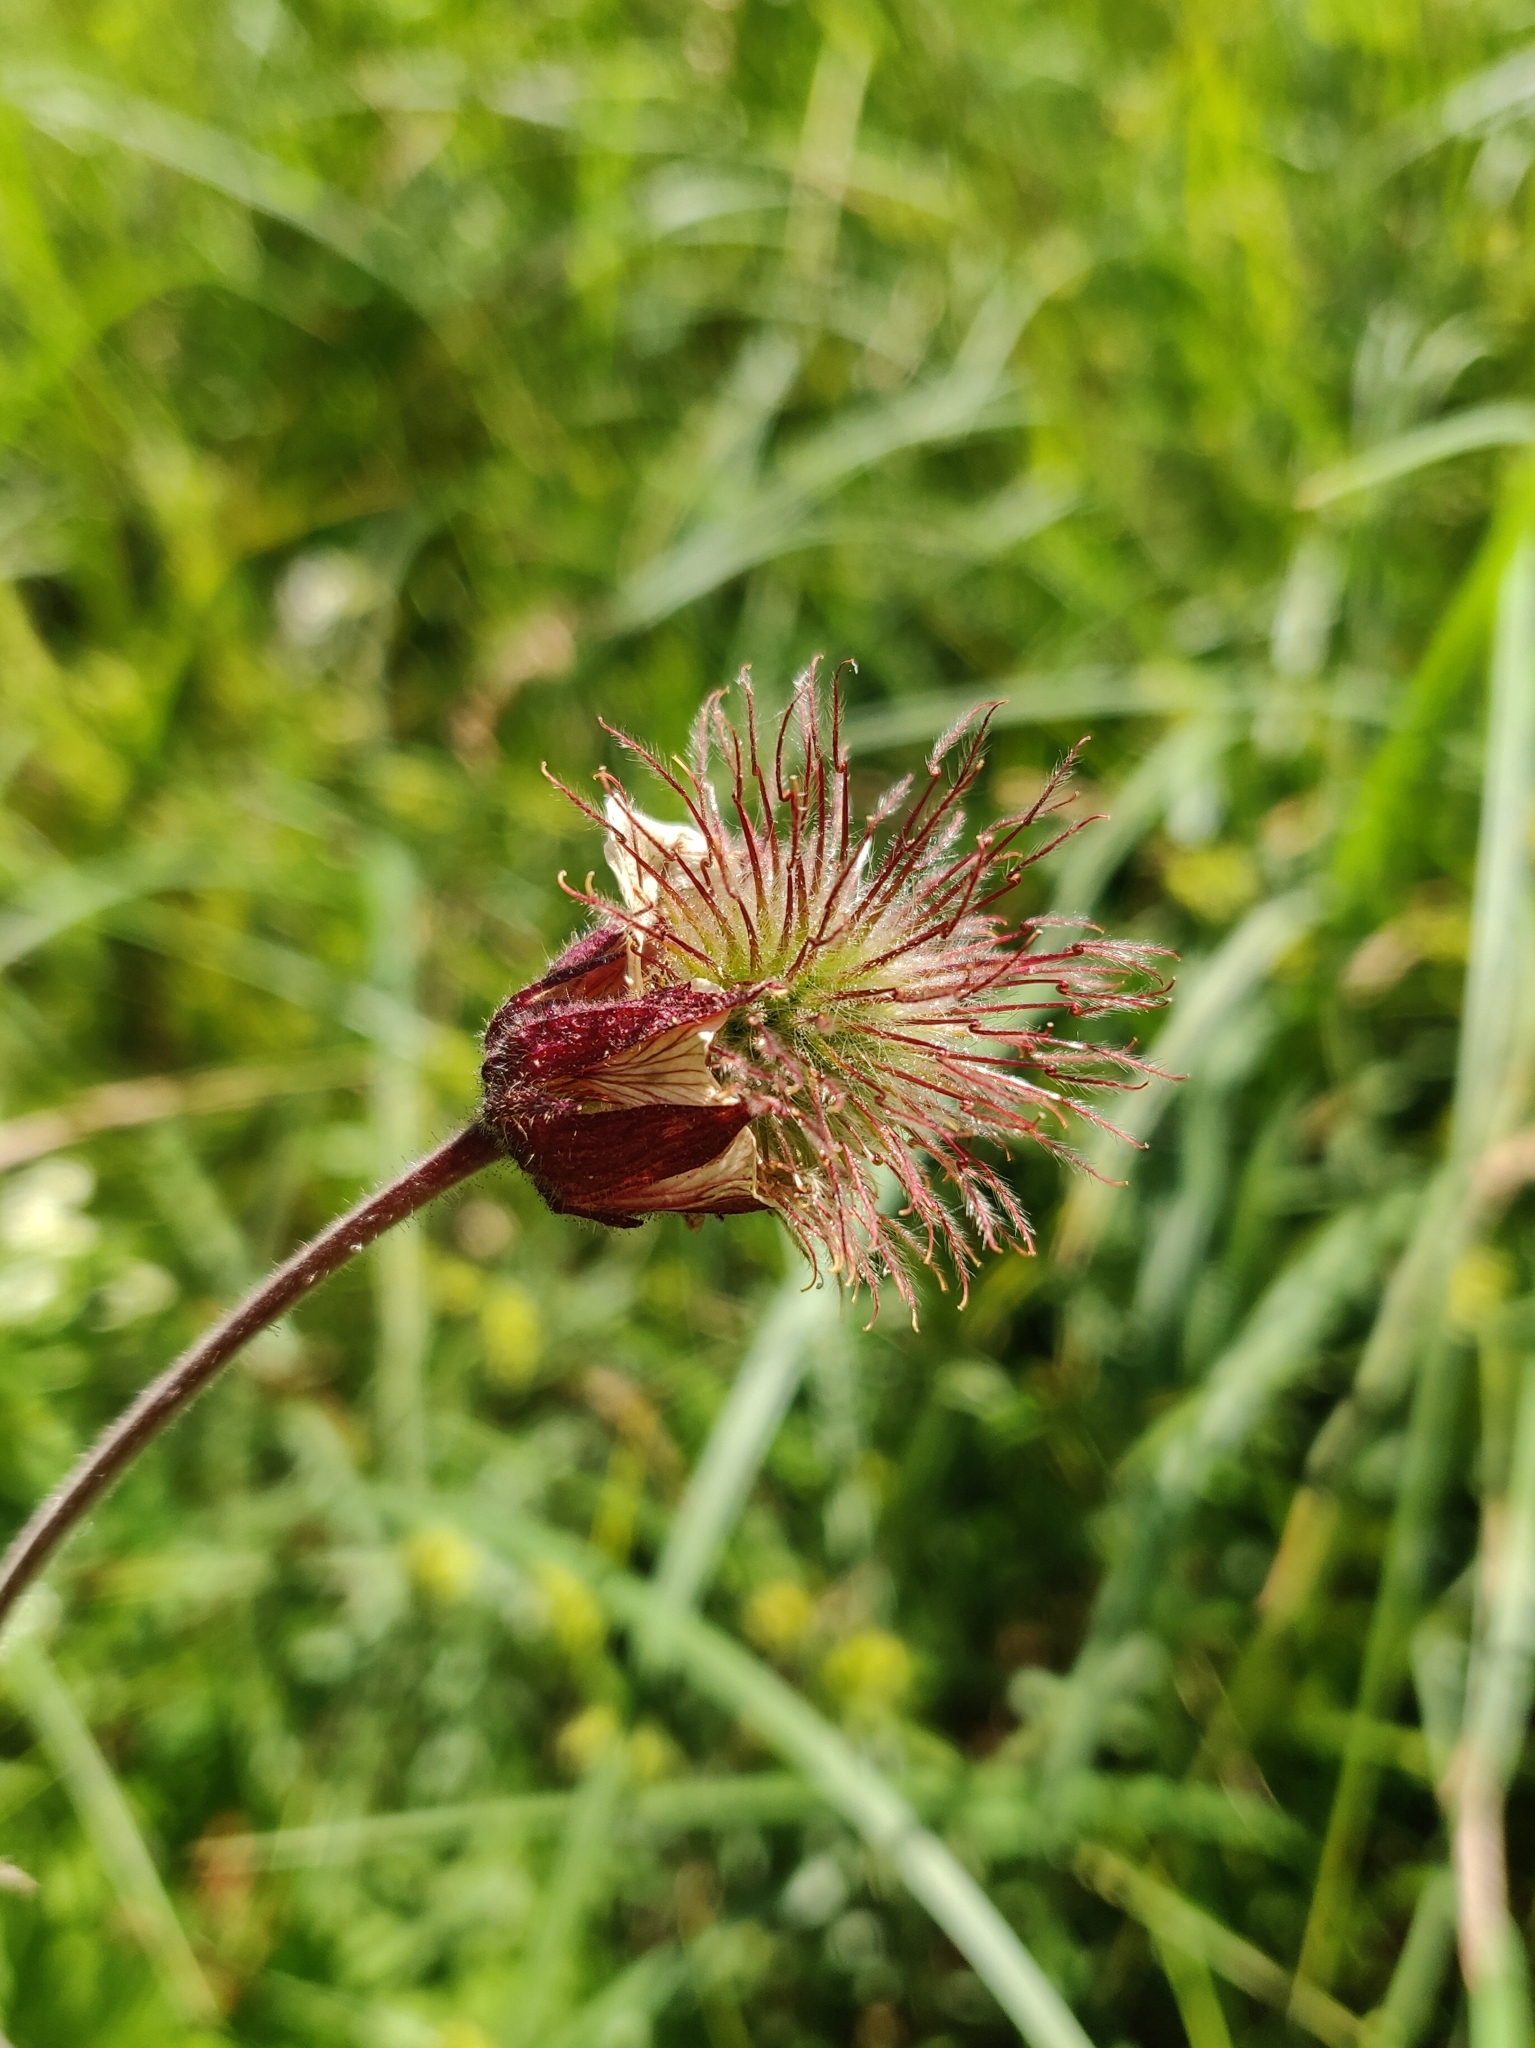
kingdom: Plantae
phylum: Tracheophyta
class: Magnoliopsida
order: Rosales
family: Rosaceae
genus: Geum
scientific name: Geum rivale
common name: Water avens
